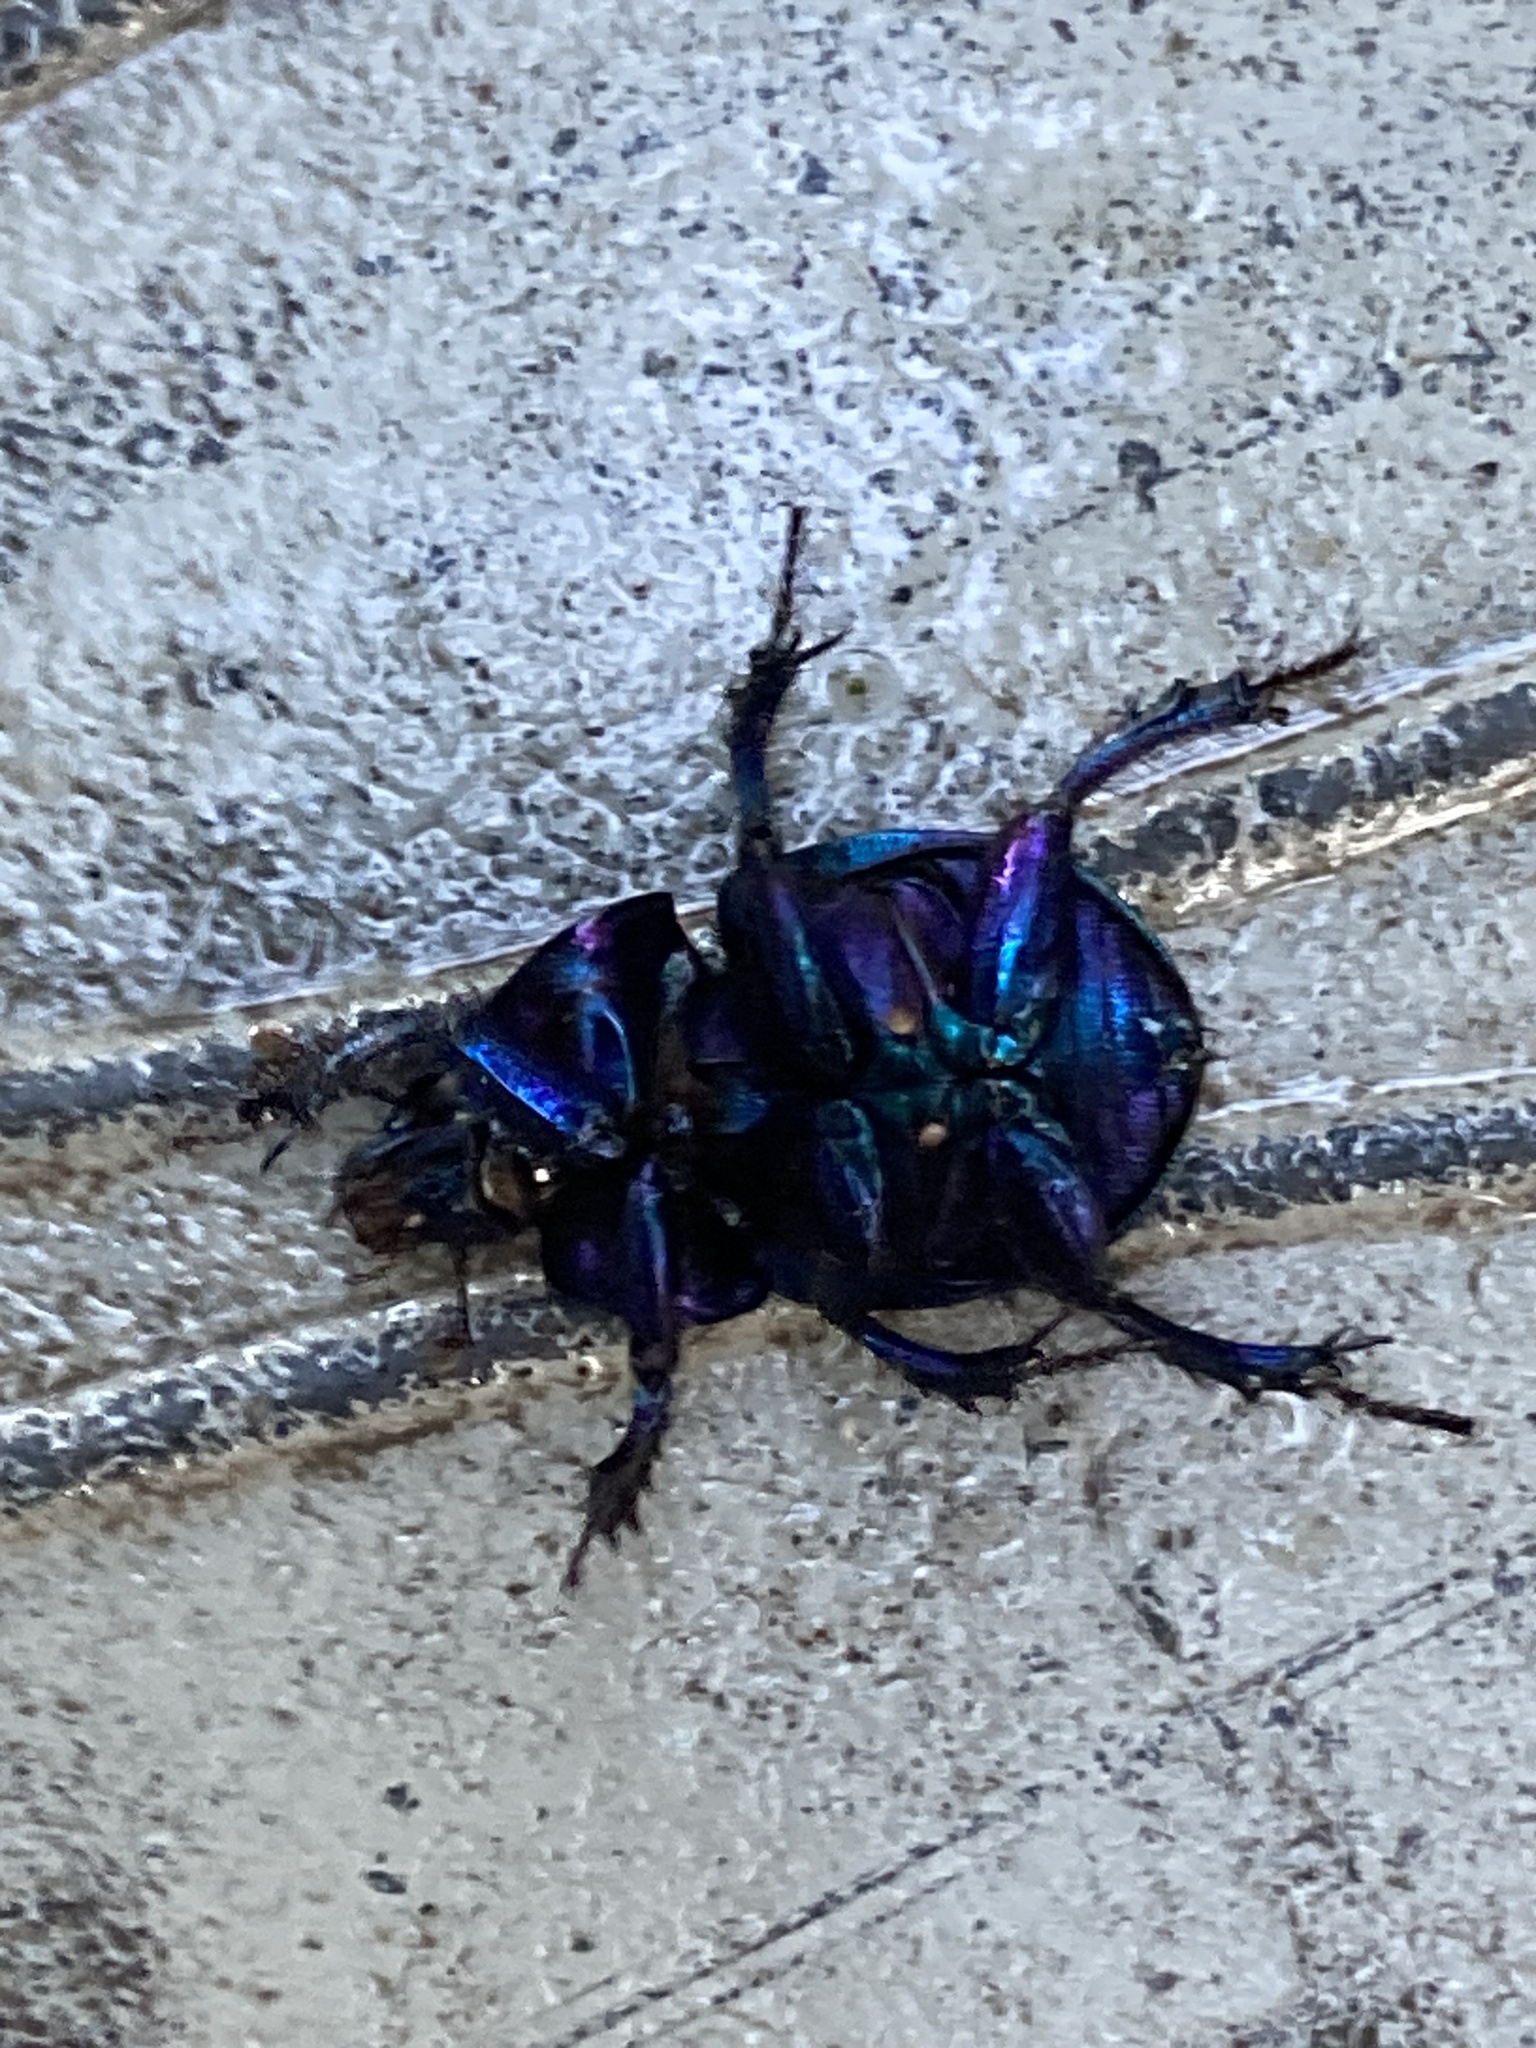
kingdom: Animalia
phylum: Arthropoda
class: Insecta
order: Coleoptera
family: Geotrupidae
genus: Anoplotrupes
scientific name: Anoplotrupes stercorosus
